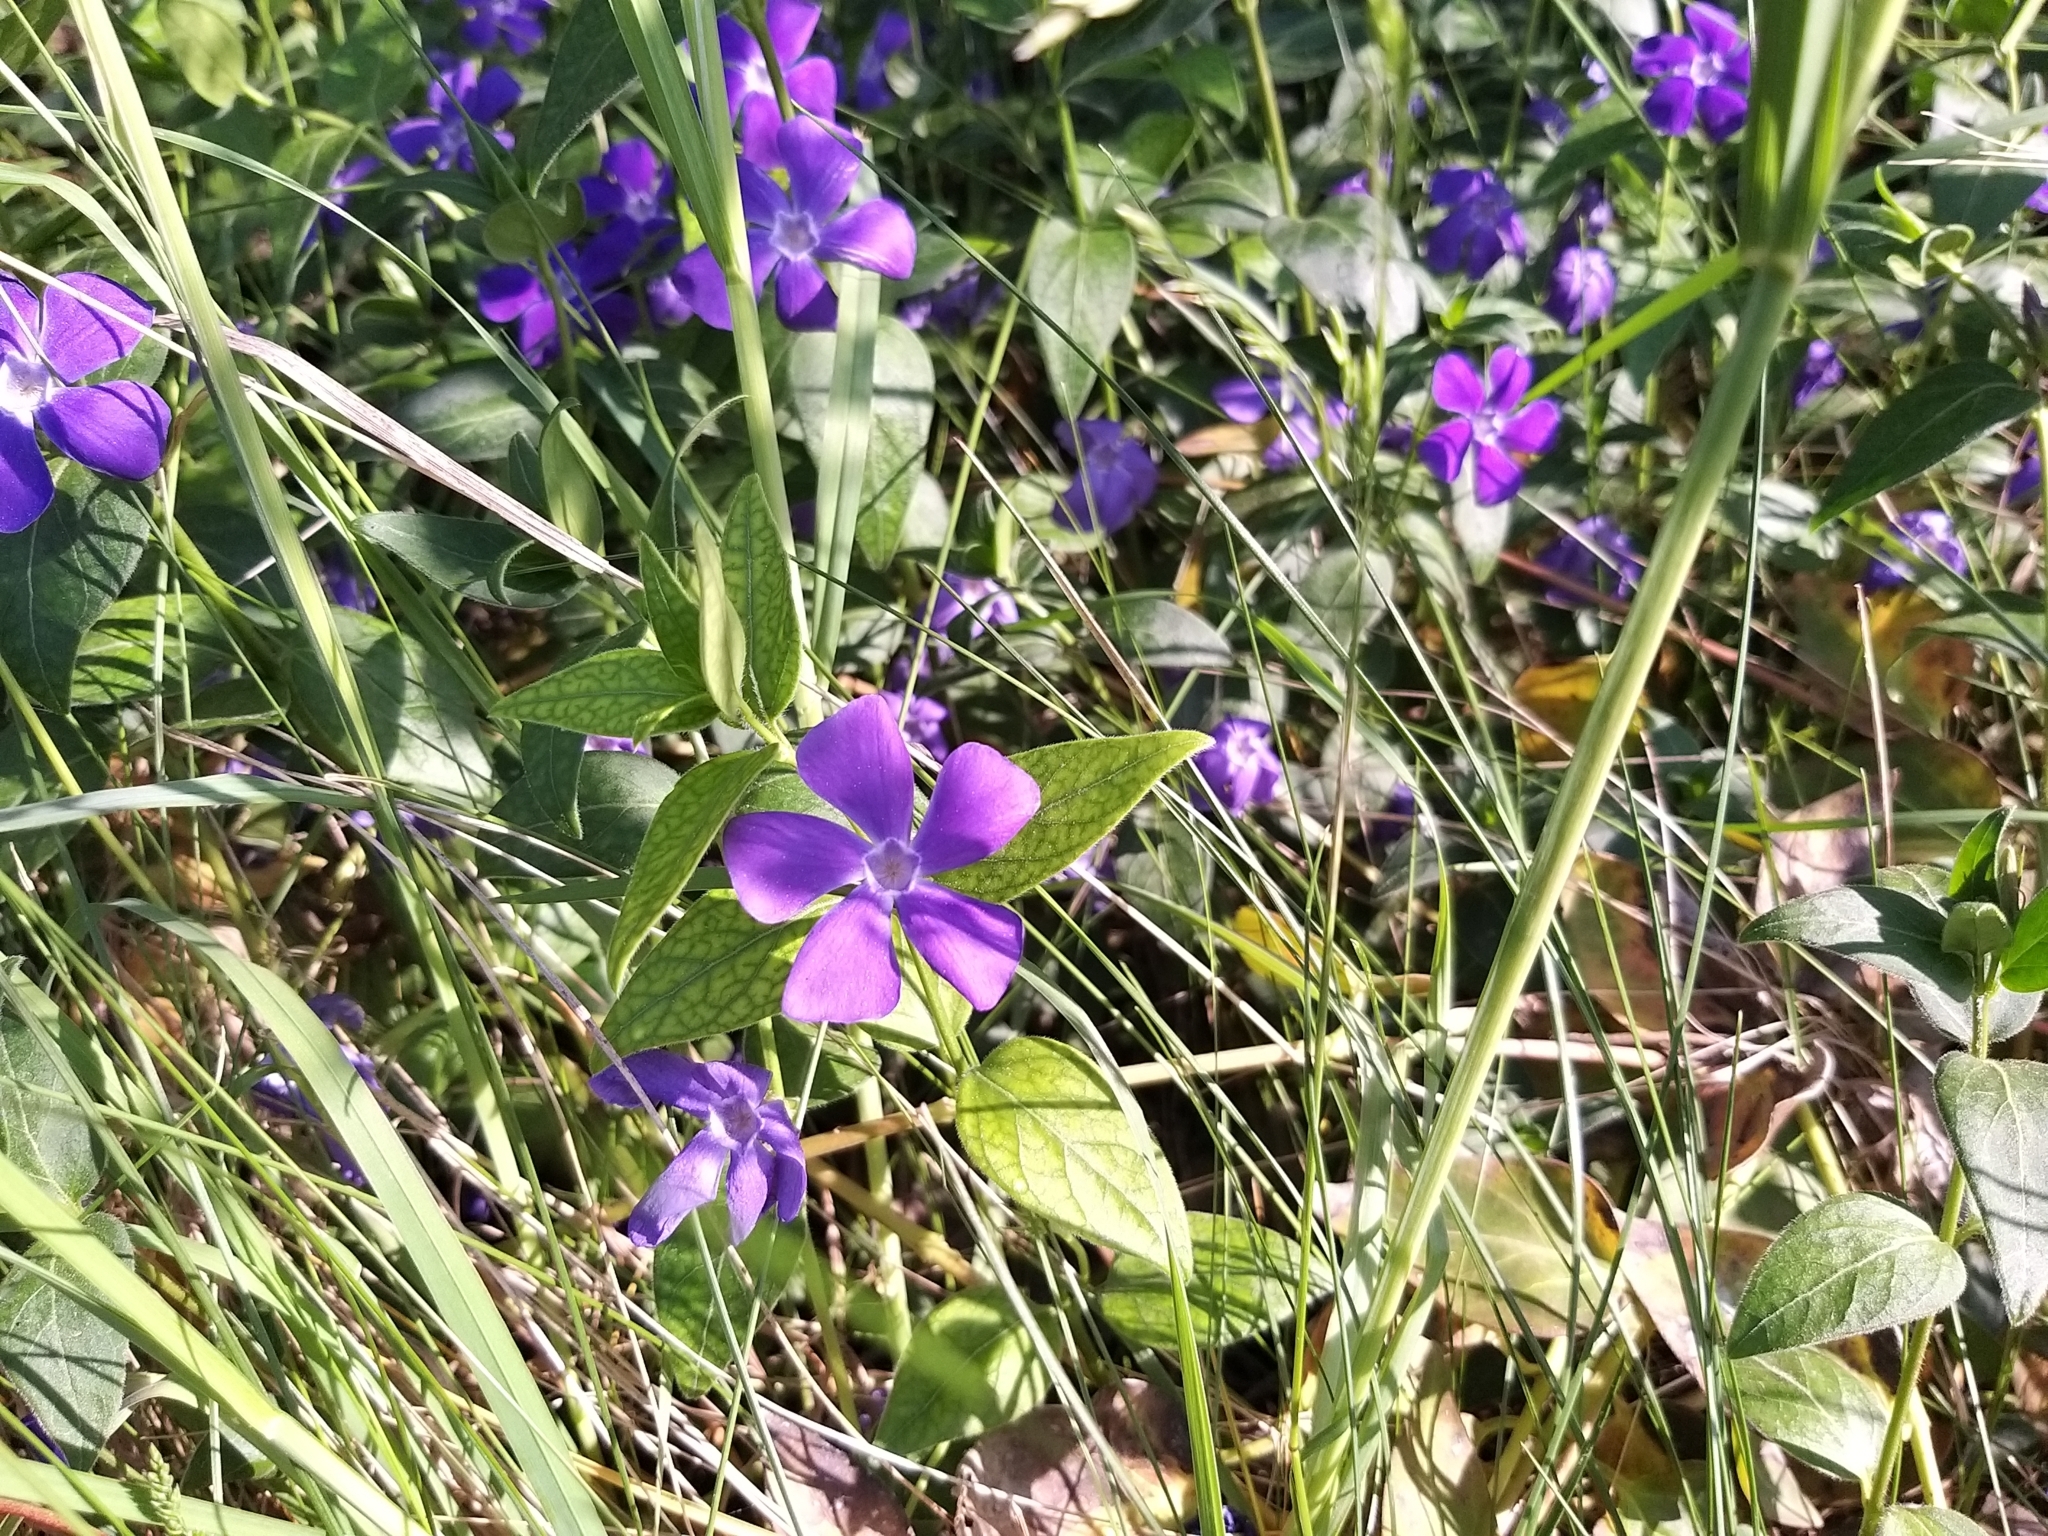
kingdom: Plantae
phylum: Tracheophyta
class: Magnoliopsida
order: Gentianales
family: Apocynaceae
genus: Vinca
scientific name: Vinca major
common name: Greater periwinkle
